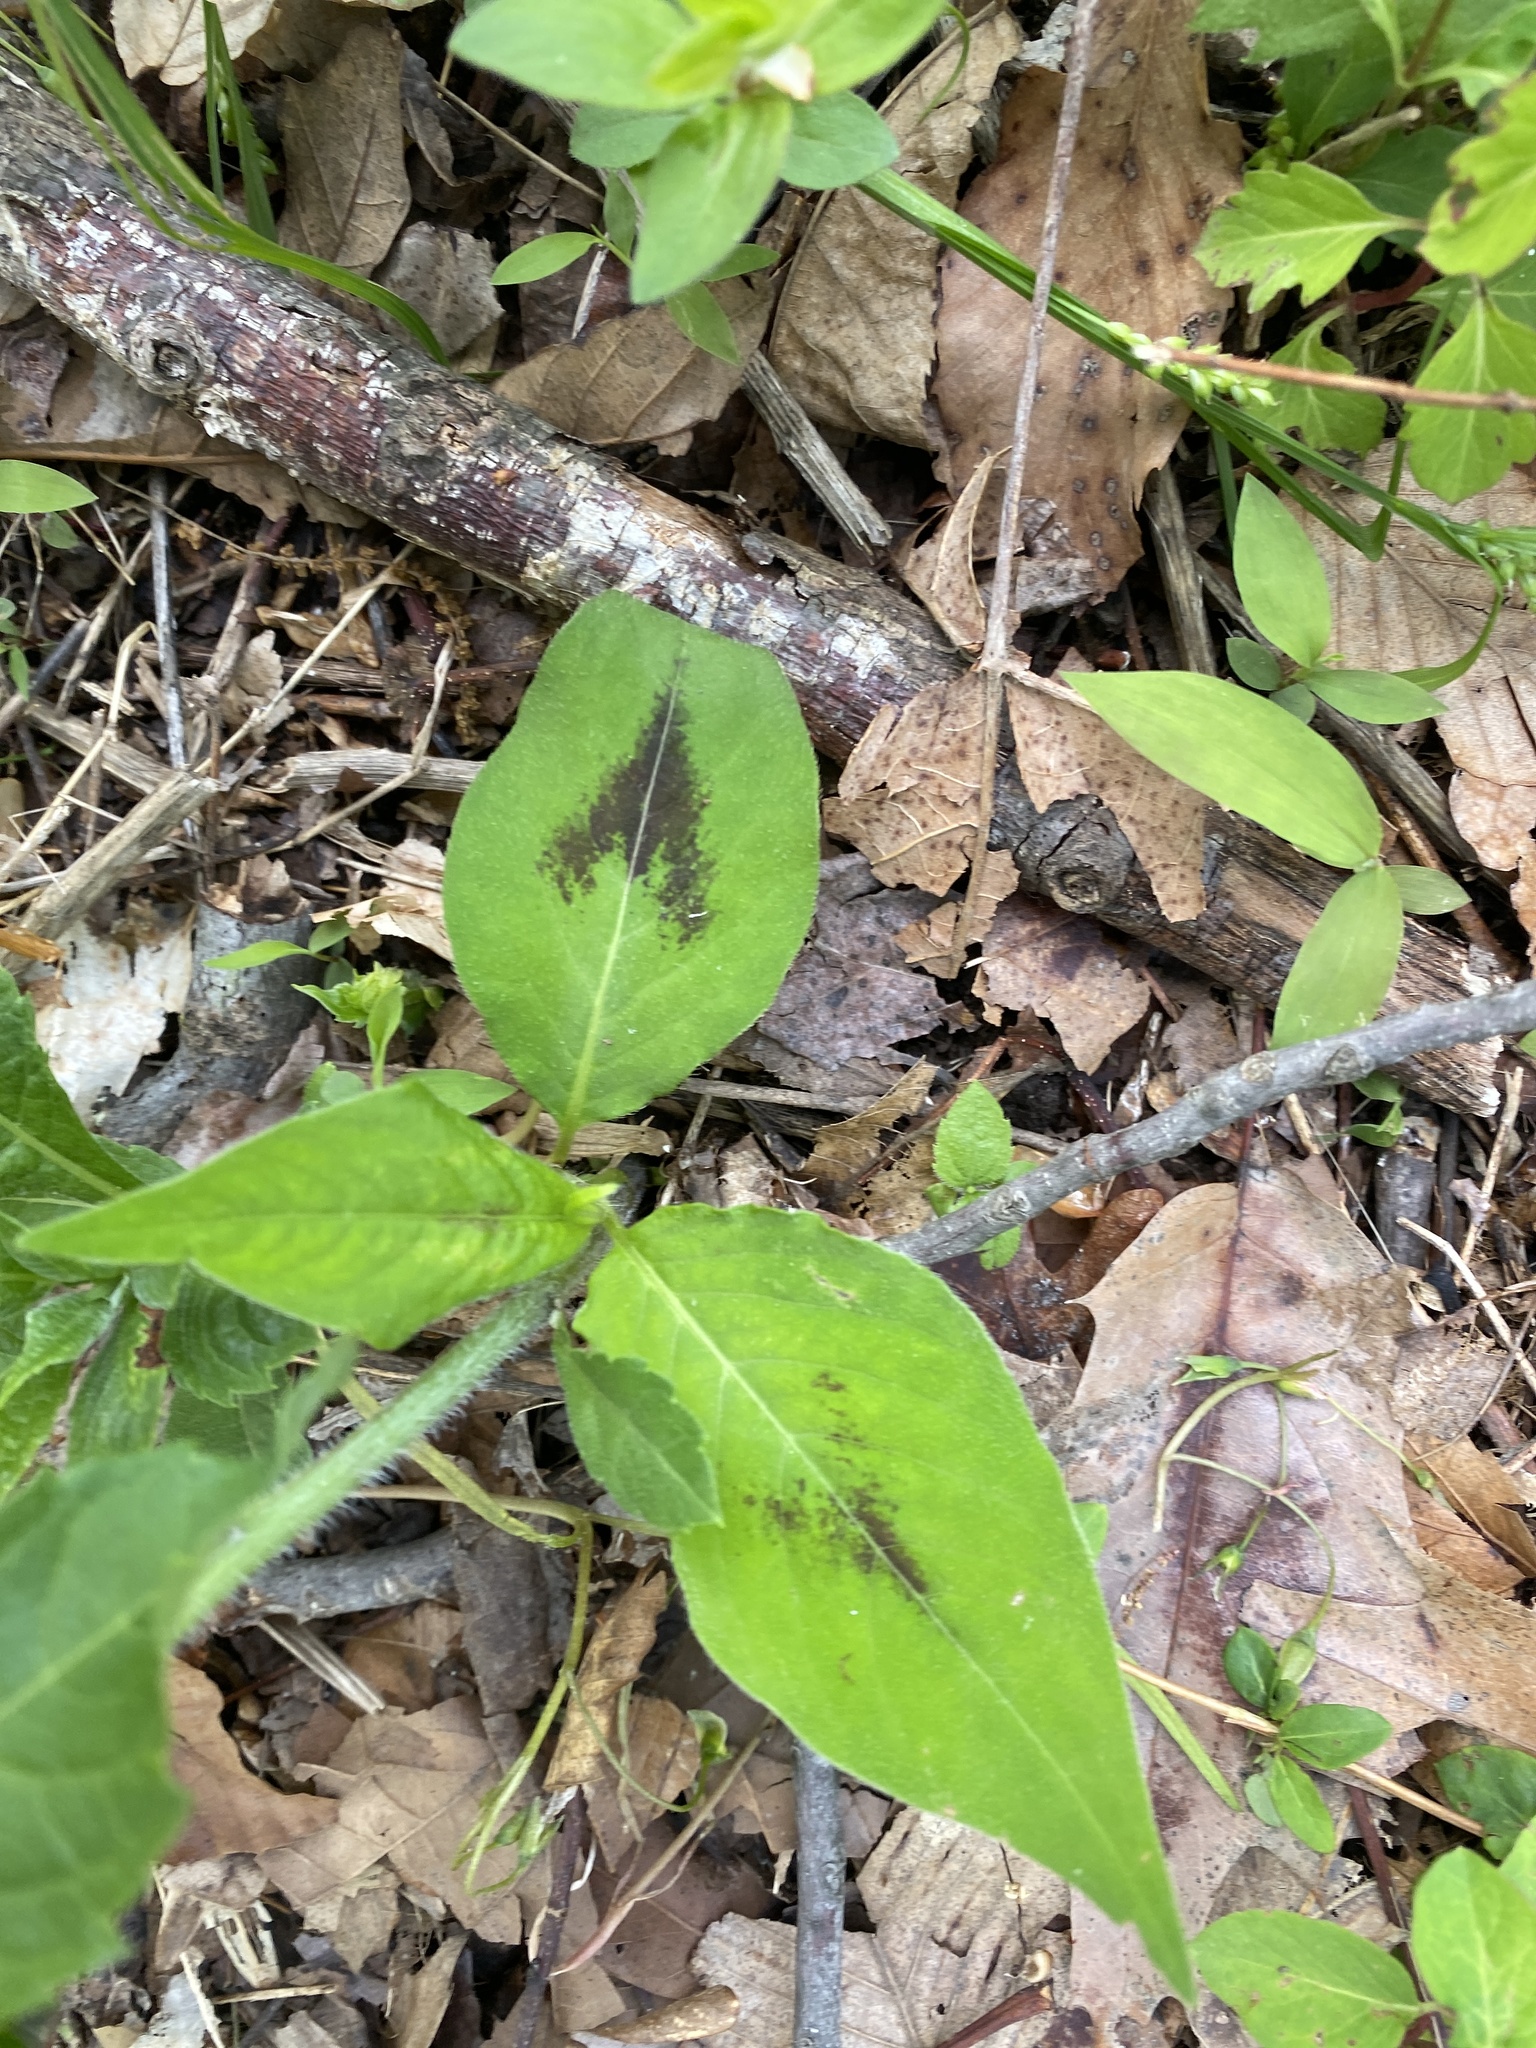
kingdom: Plantae
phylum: Tracheophyta
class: Magnoliopsida
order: Caryophyllales
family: Polygonaceae
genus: Persicaria
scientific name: Persicaria virginiana
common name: Jumpseed
